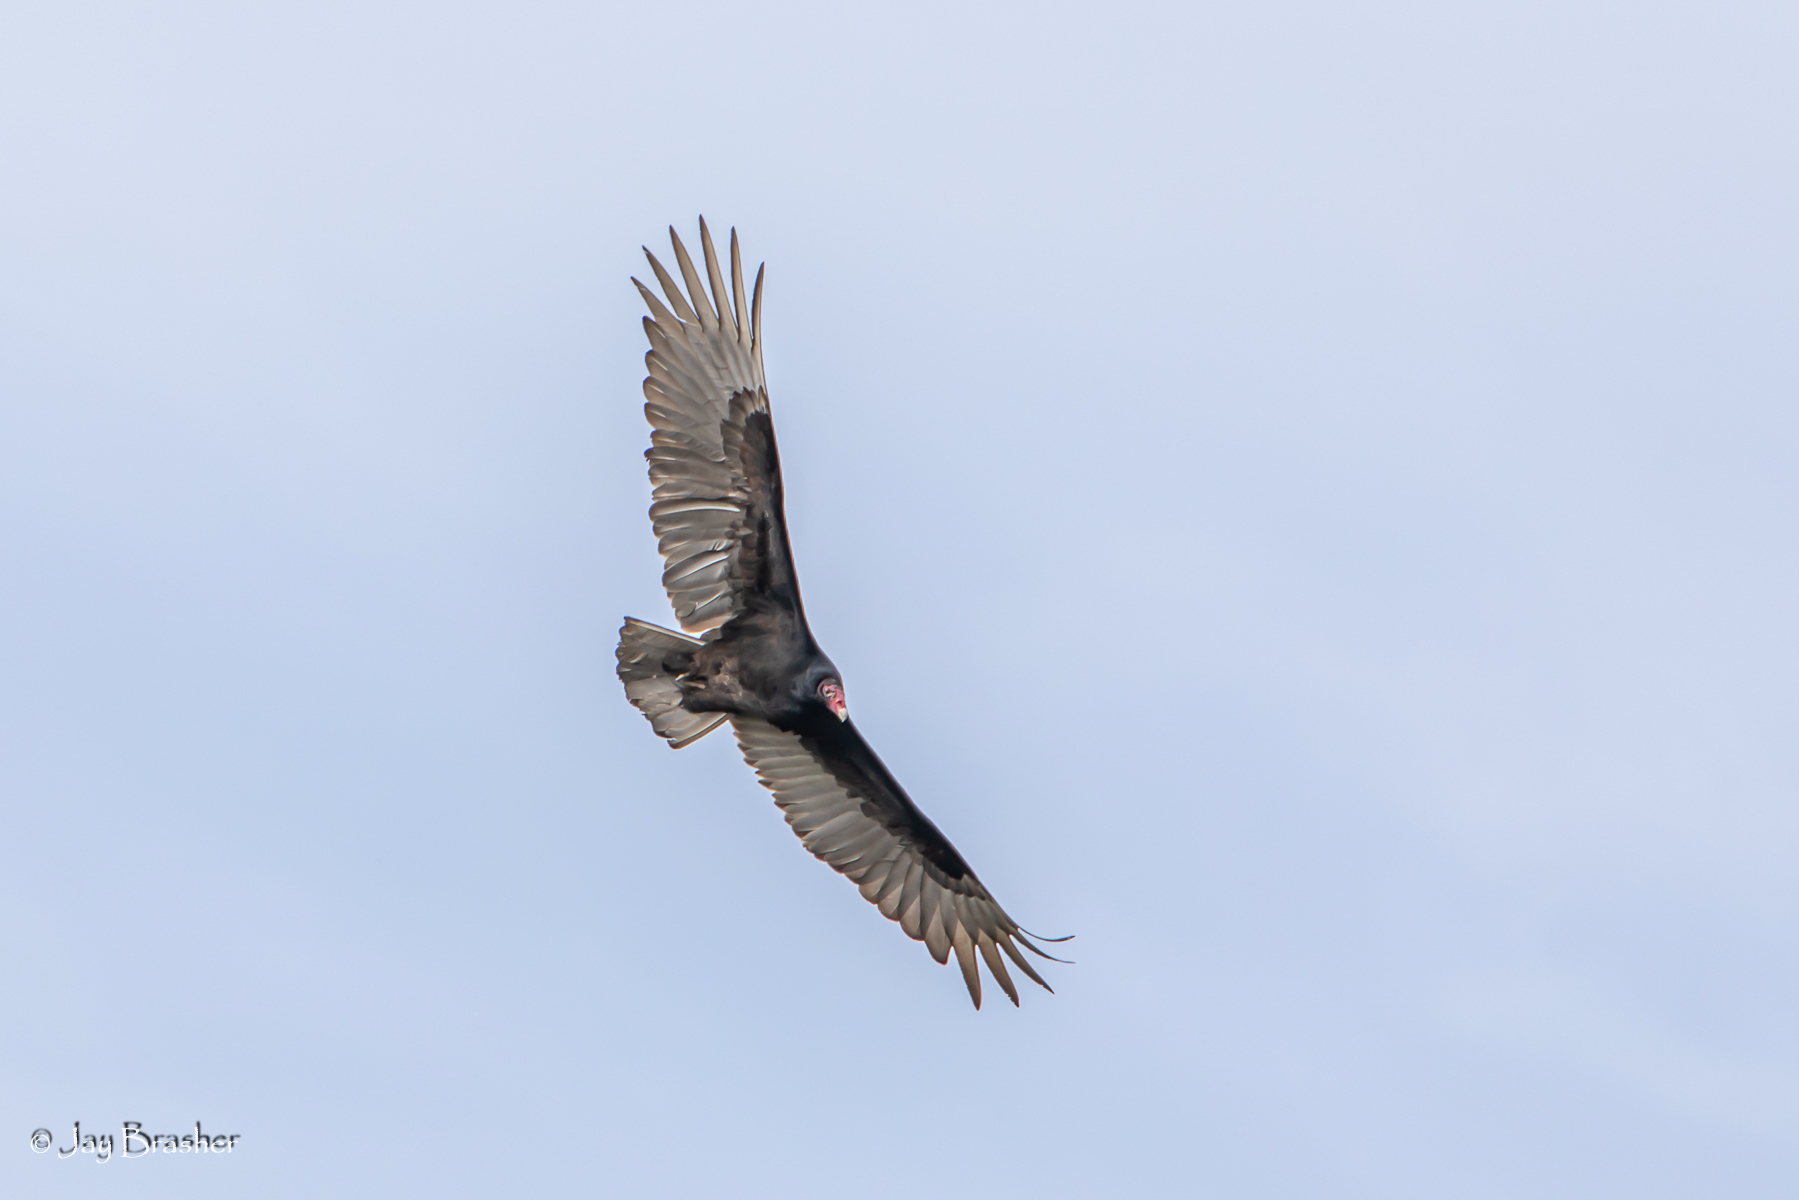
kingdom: Animalia
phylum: Chordata
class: Aves
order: Accipitriformes
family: Cathartidae
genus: Cathartes
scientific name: Cathartes aura
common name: Turkey vulture
